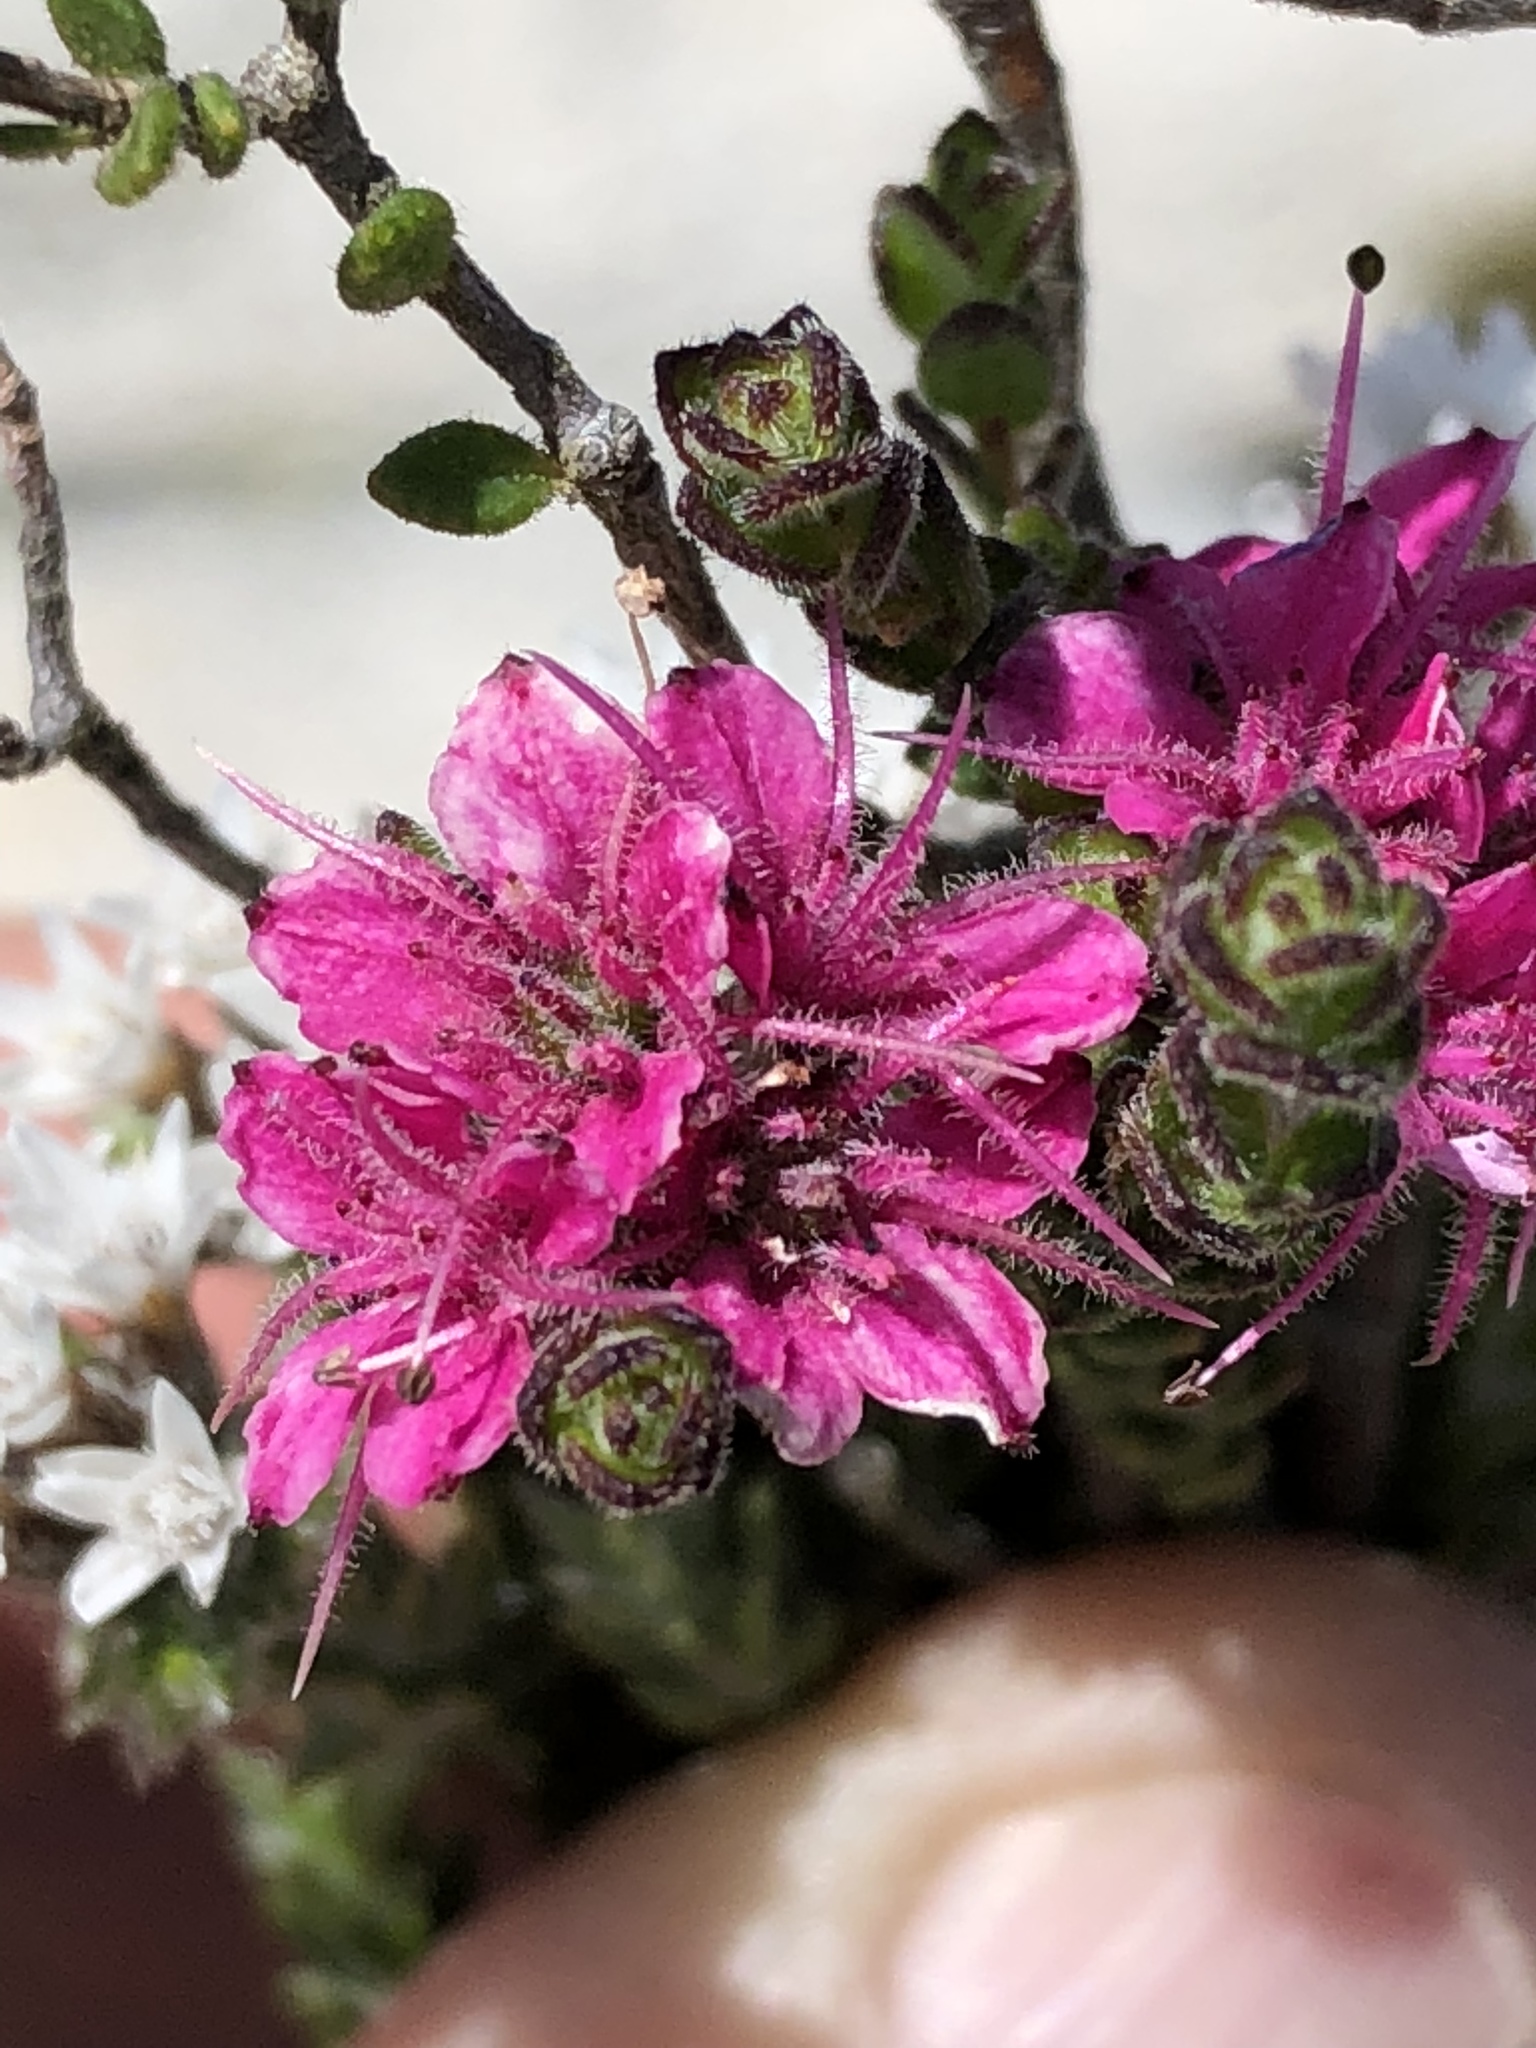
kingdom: Plantae
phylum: Tracheophyta
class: Magnoliopsida
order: Sapindales
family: Rutaceae
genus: Agathosma
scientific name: Agathosma zwartbergense
